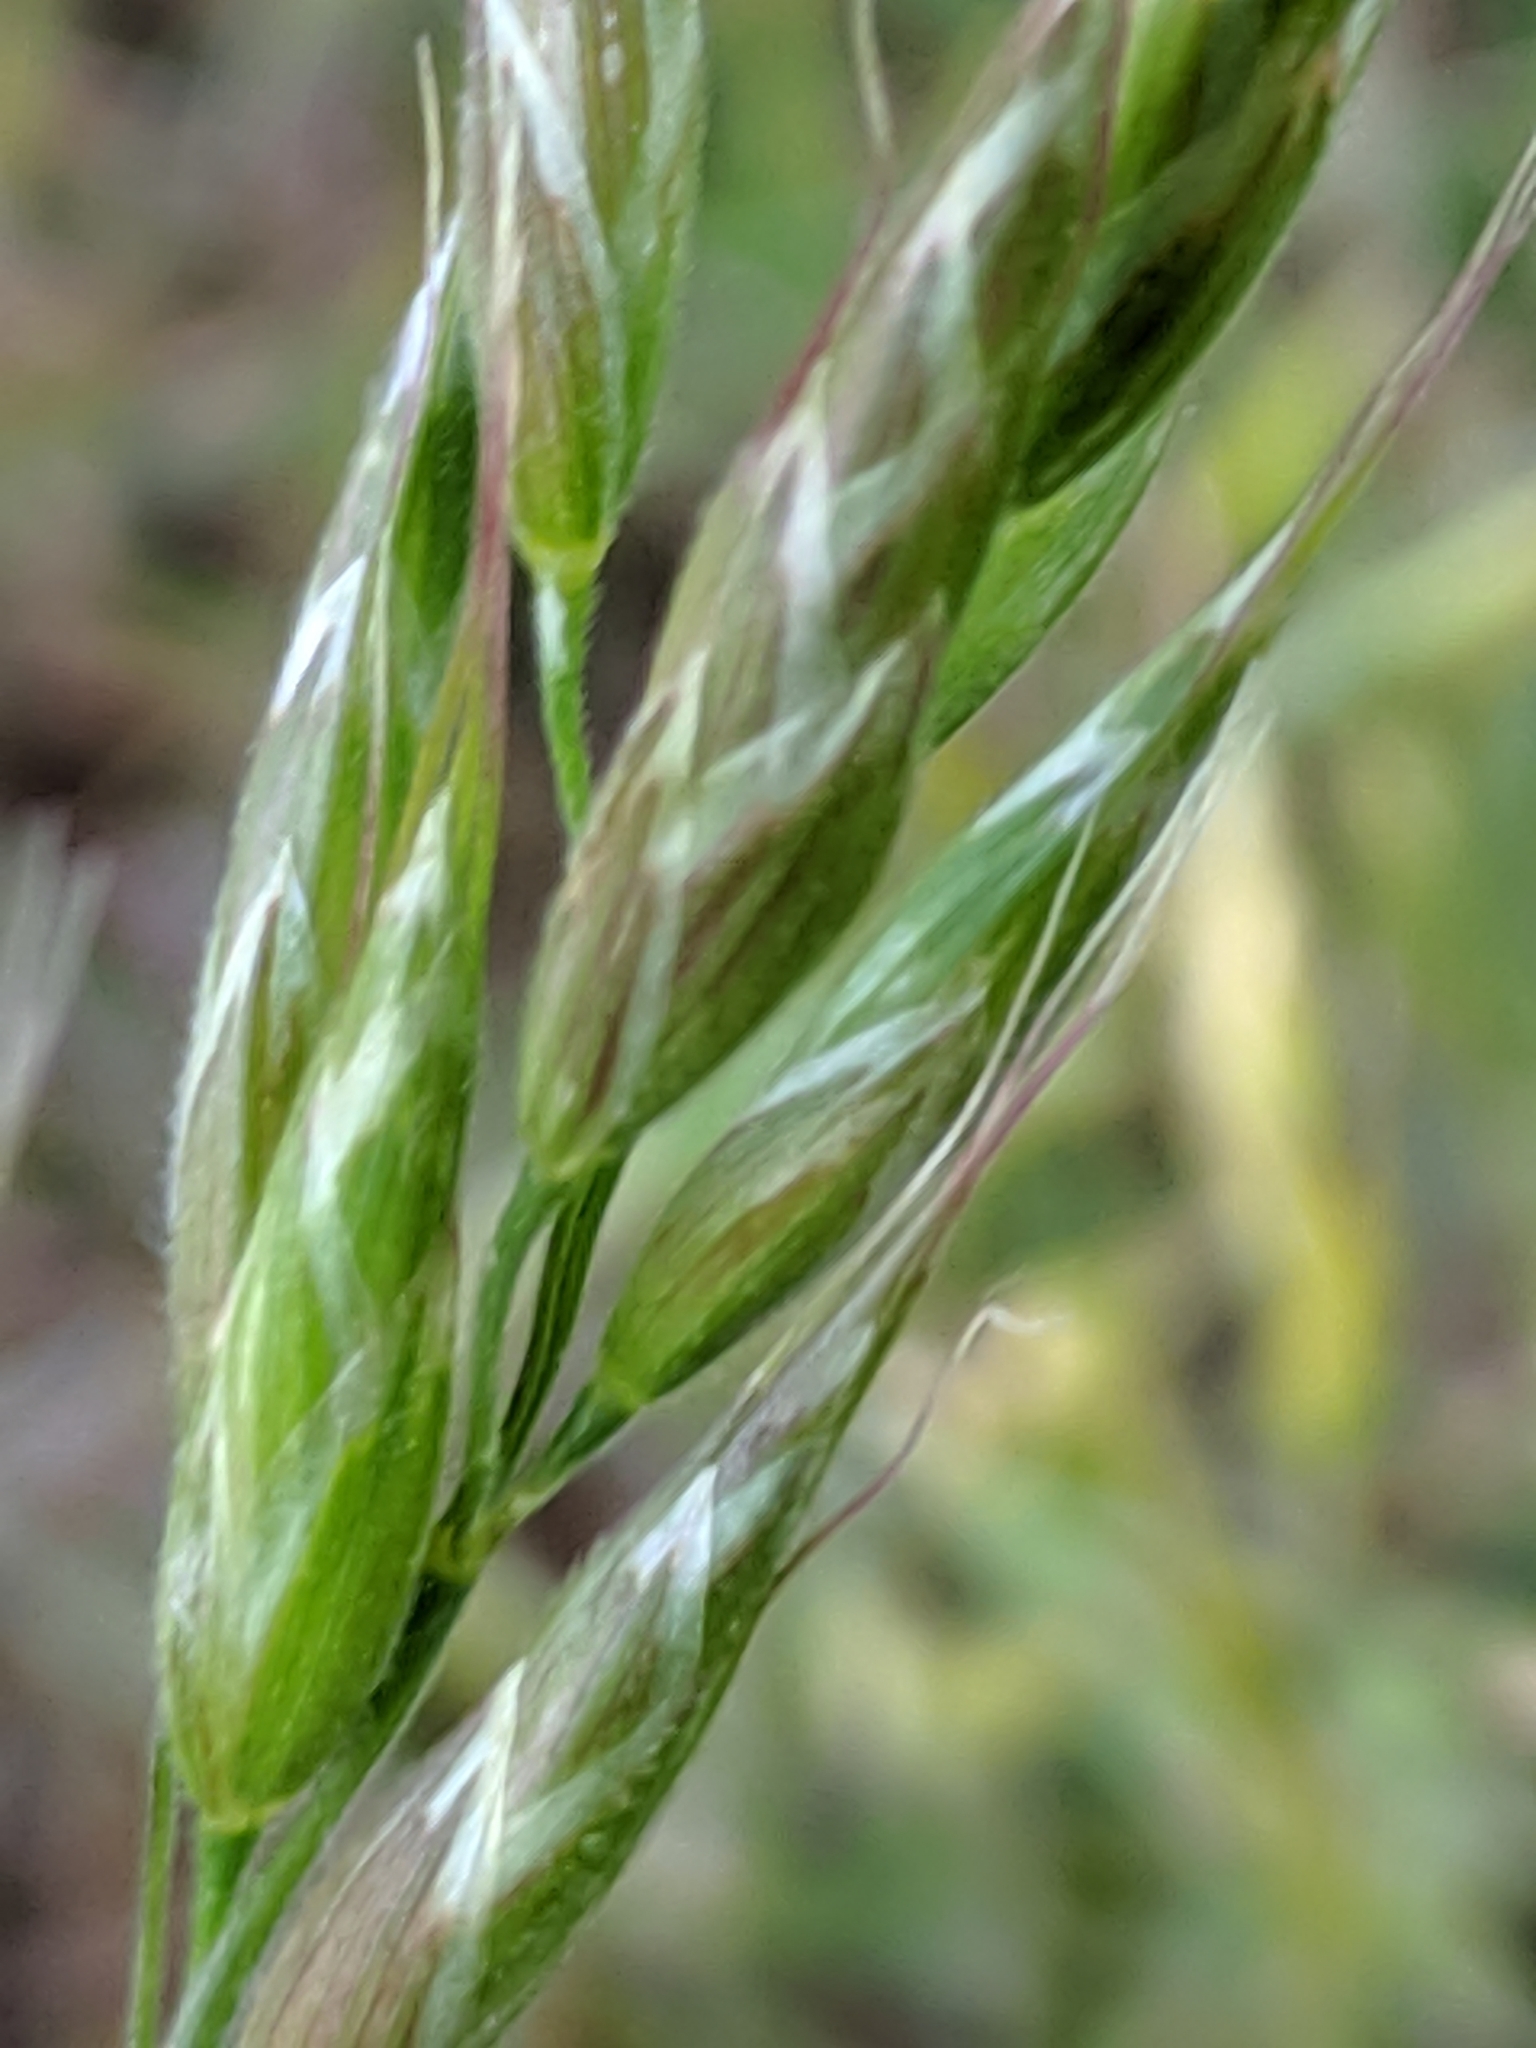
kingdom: Plantae
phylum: Tracheophyta
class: Liliopsida
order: Poales
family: Poaceae
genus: Bromus
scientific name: Bromus hordeaceus
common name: Soft brome
